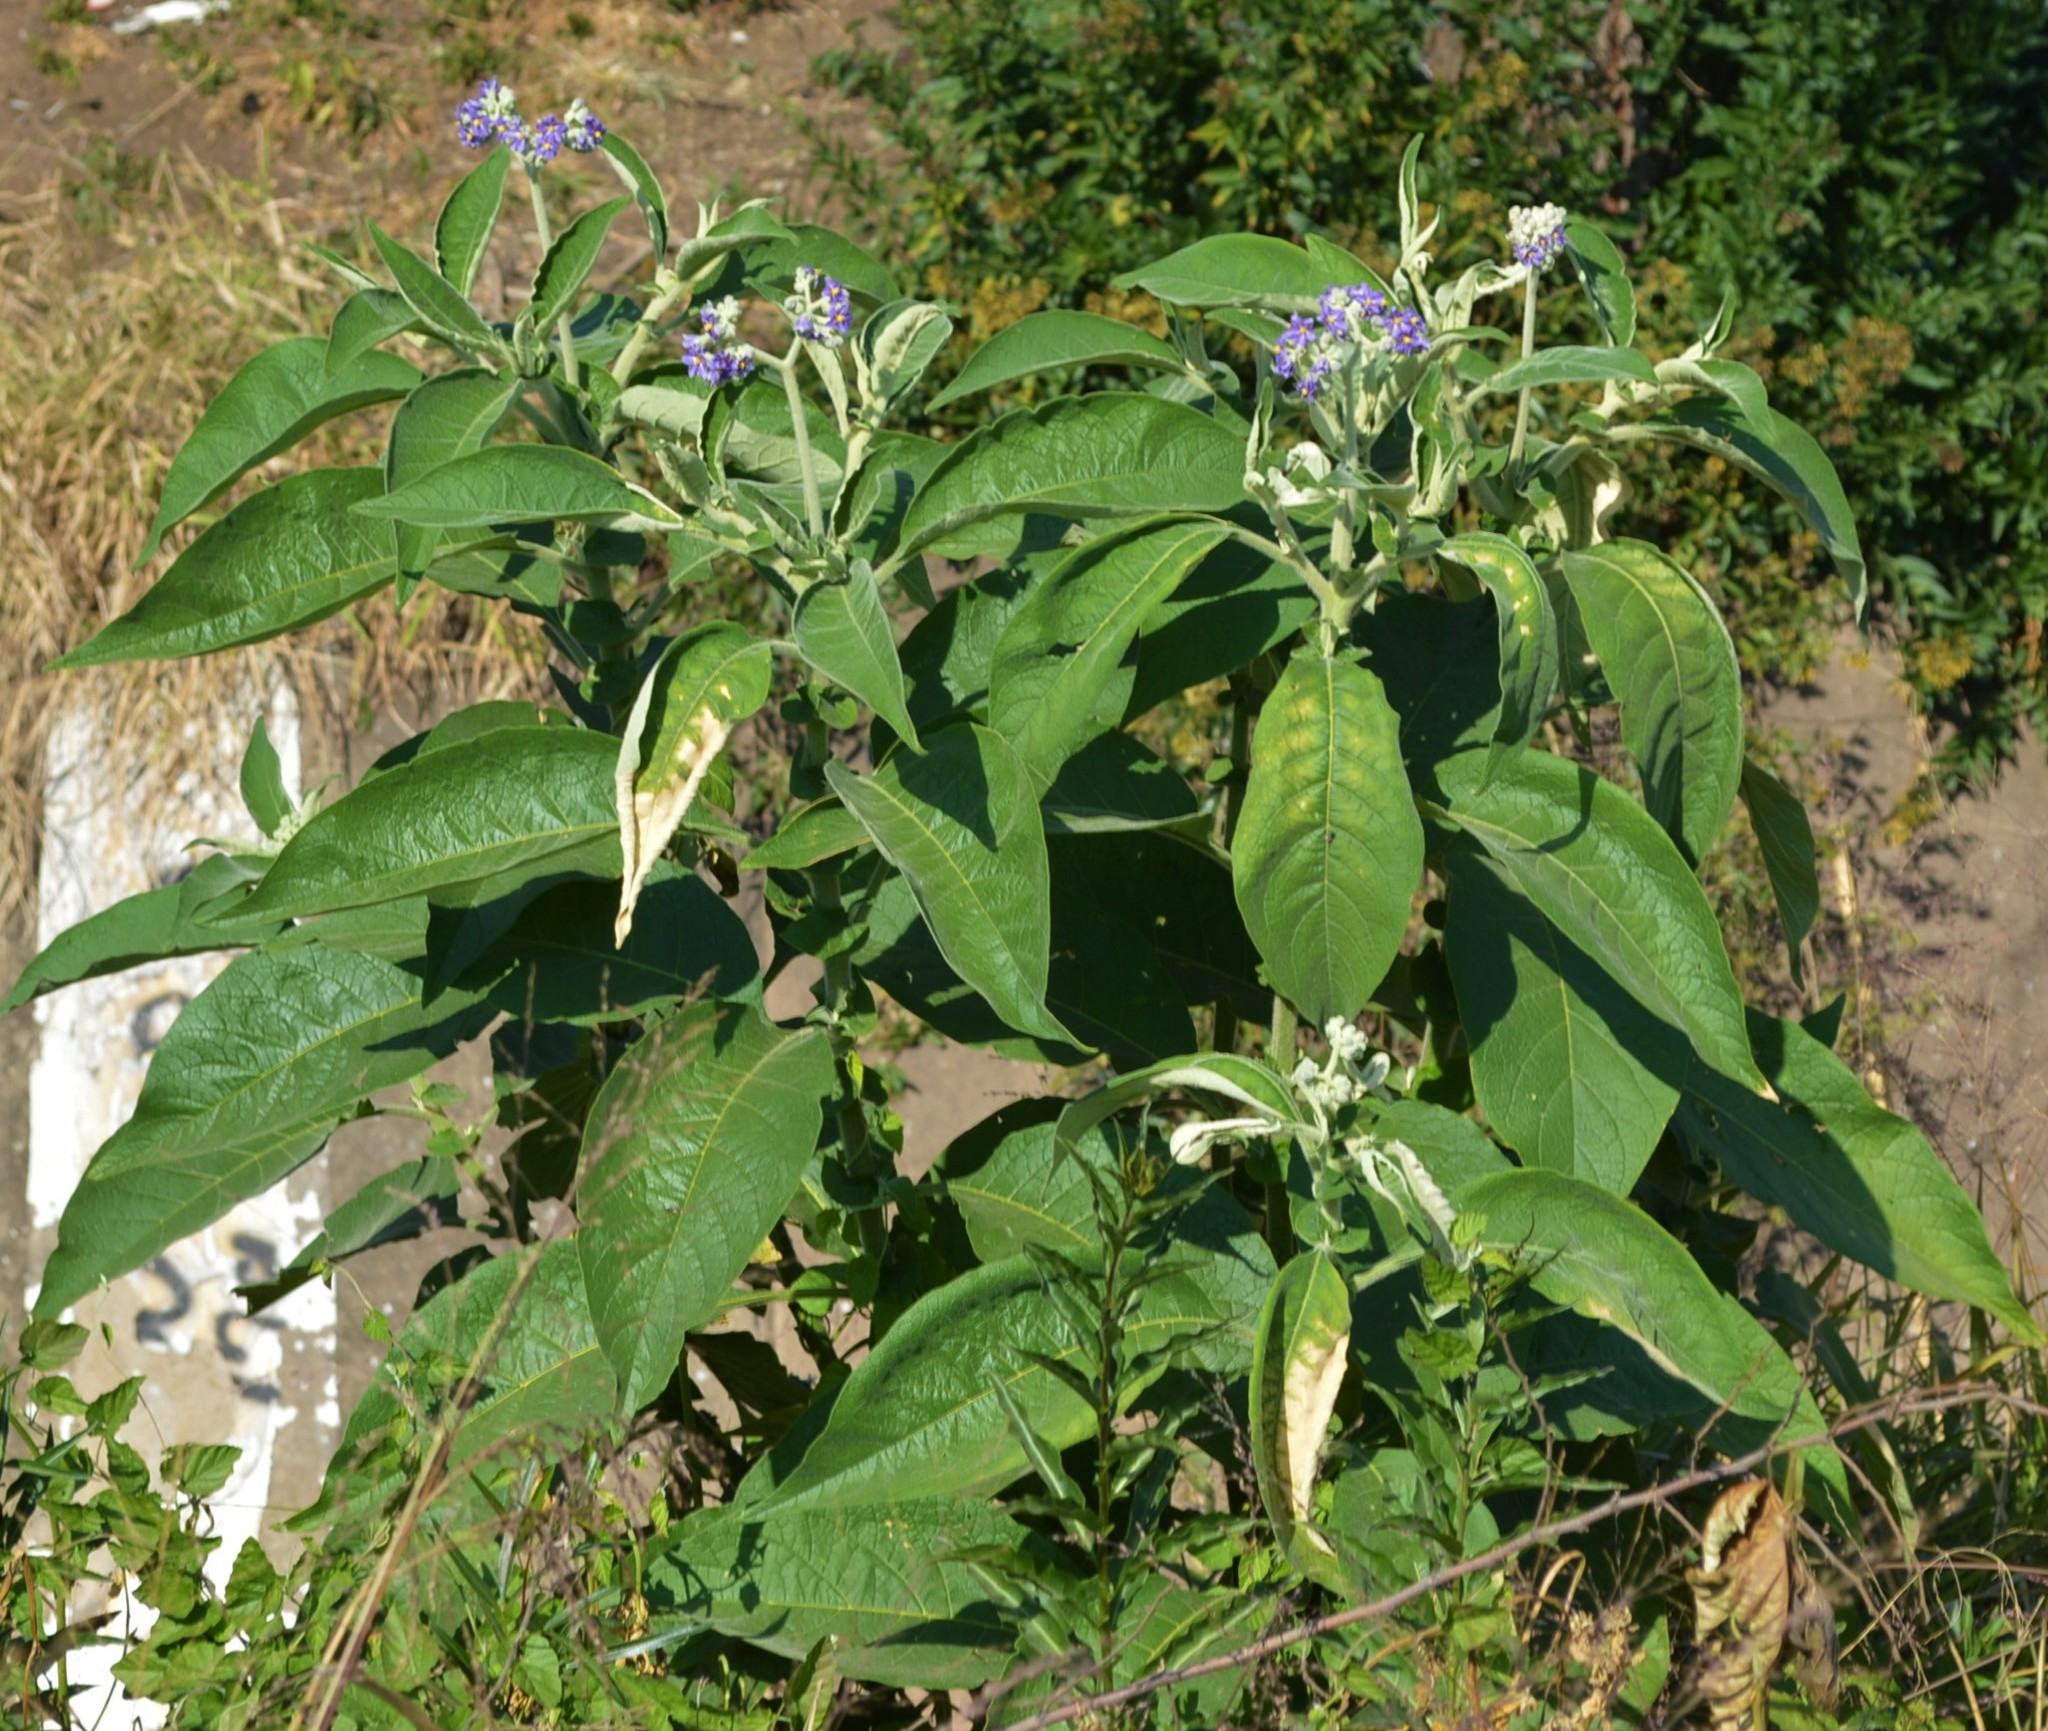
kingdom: Plantae
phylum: Tracheophyta
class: Magnoliopsida
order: Solanales
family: Solanaceae
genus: Solanum
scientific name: Solanum mauritianum
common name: Earleaf nightshade
